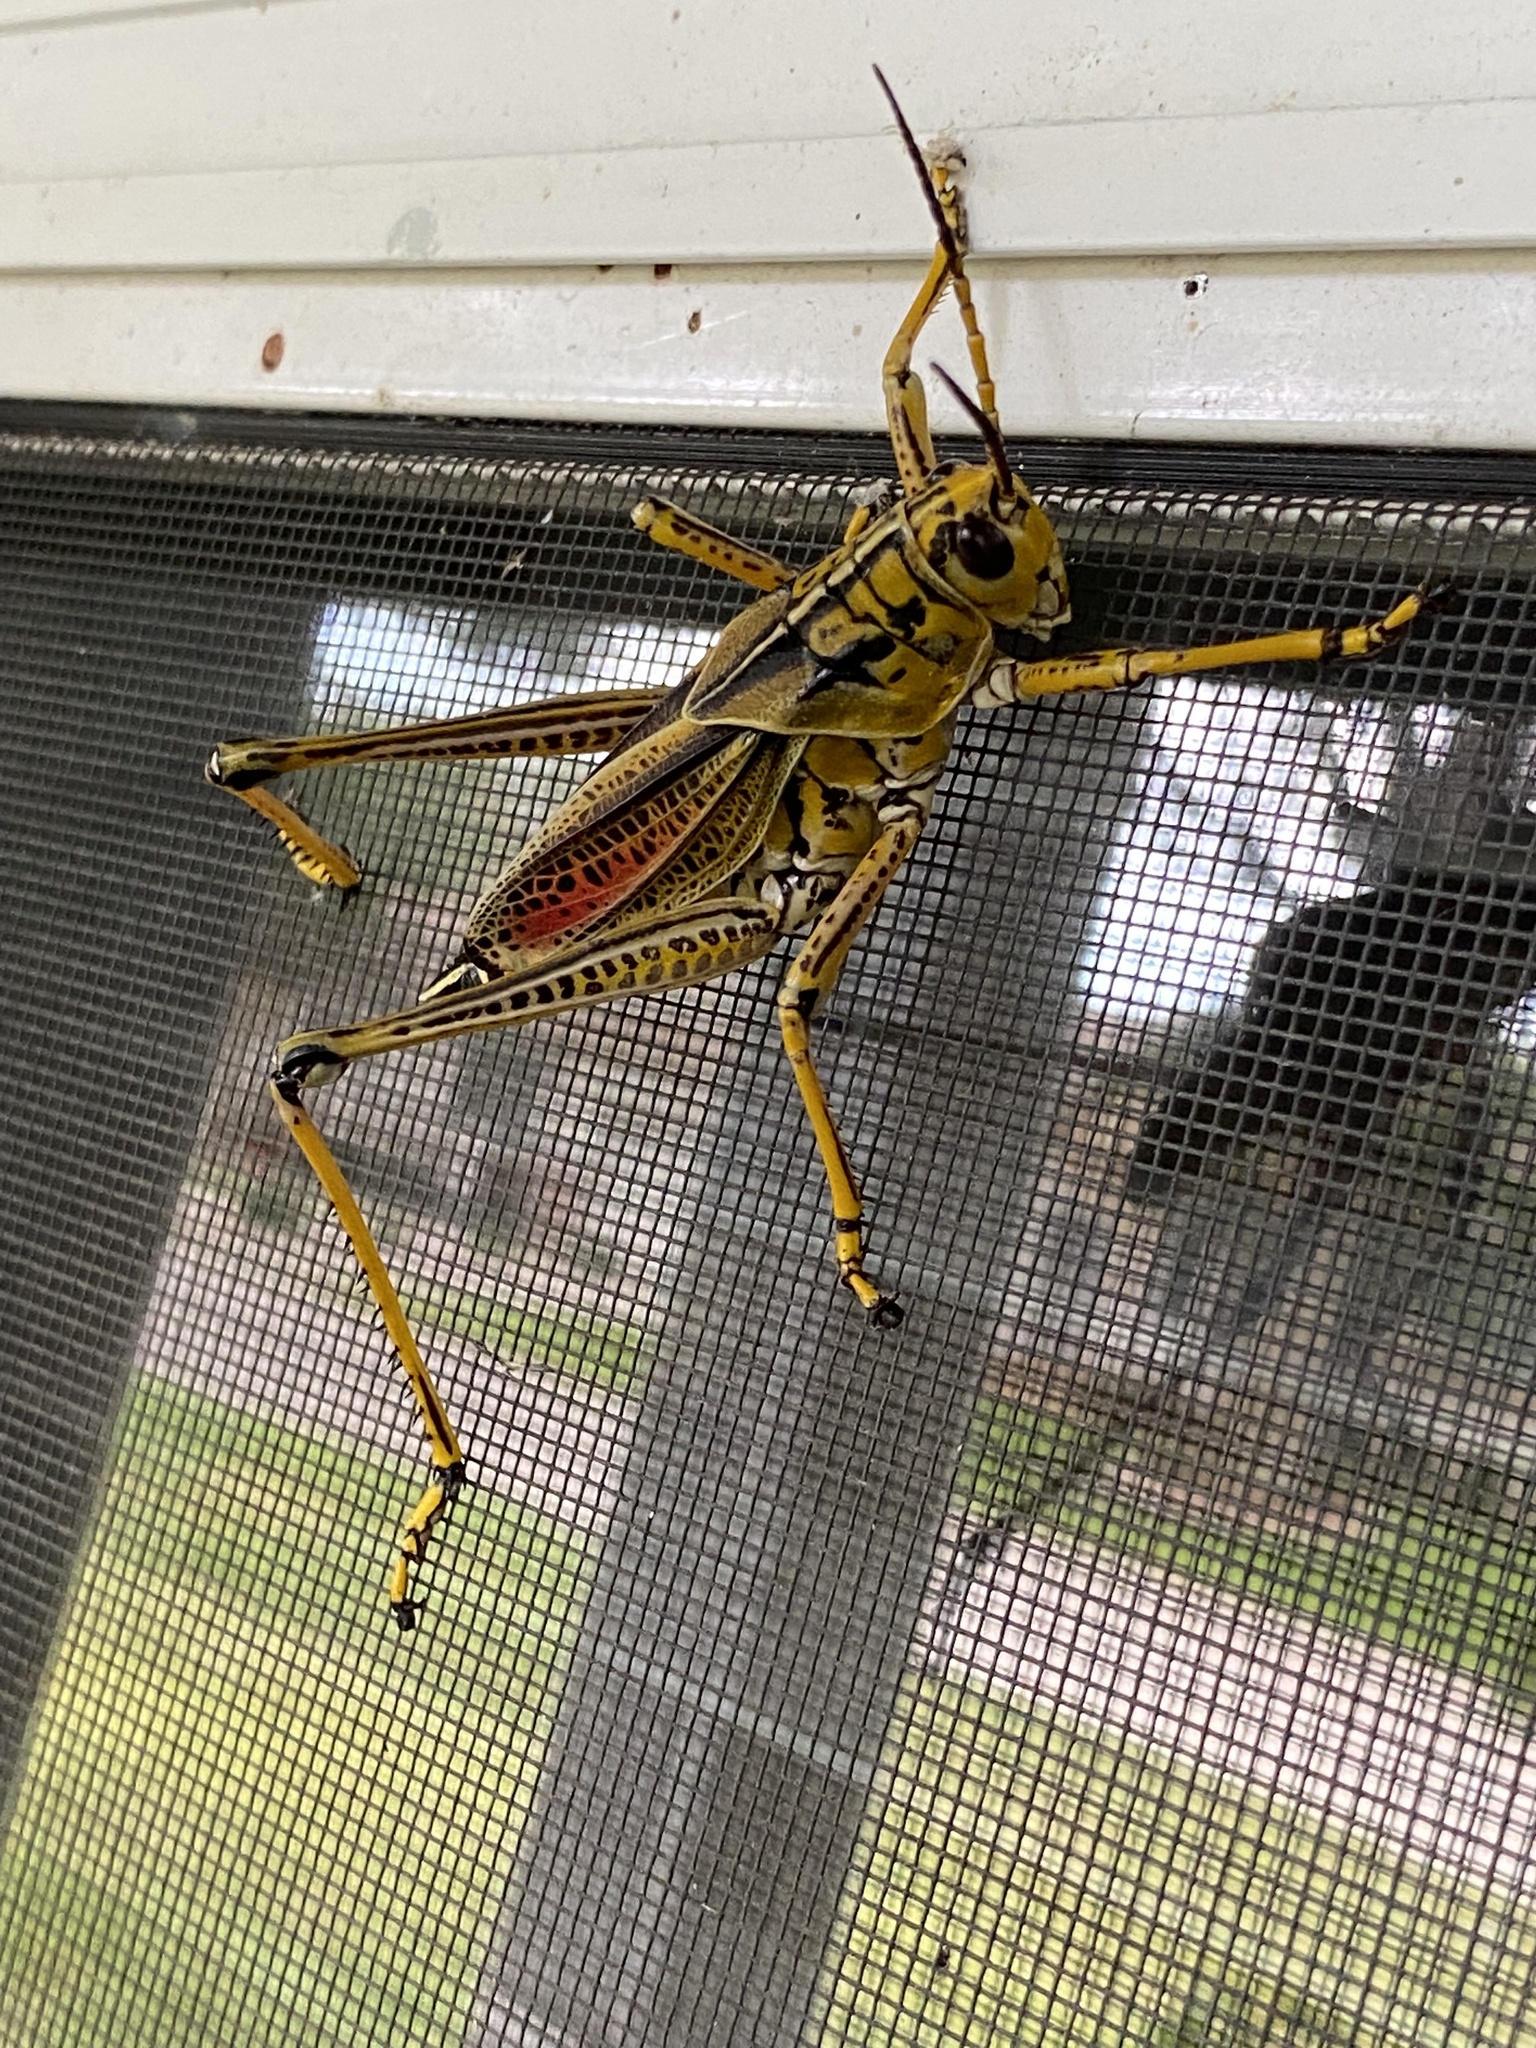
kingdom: Animalia
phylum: Arthropoda
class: Insecta
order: Orthoptera
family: Romaleidae
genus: Romalea
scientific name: Romalea microptera
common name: Eastern lubber grasshopper
